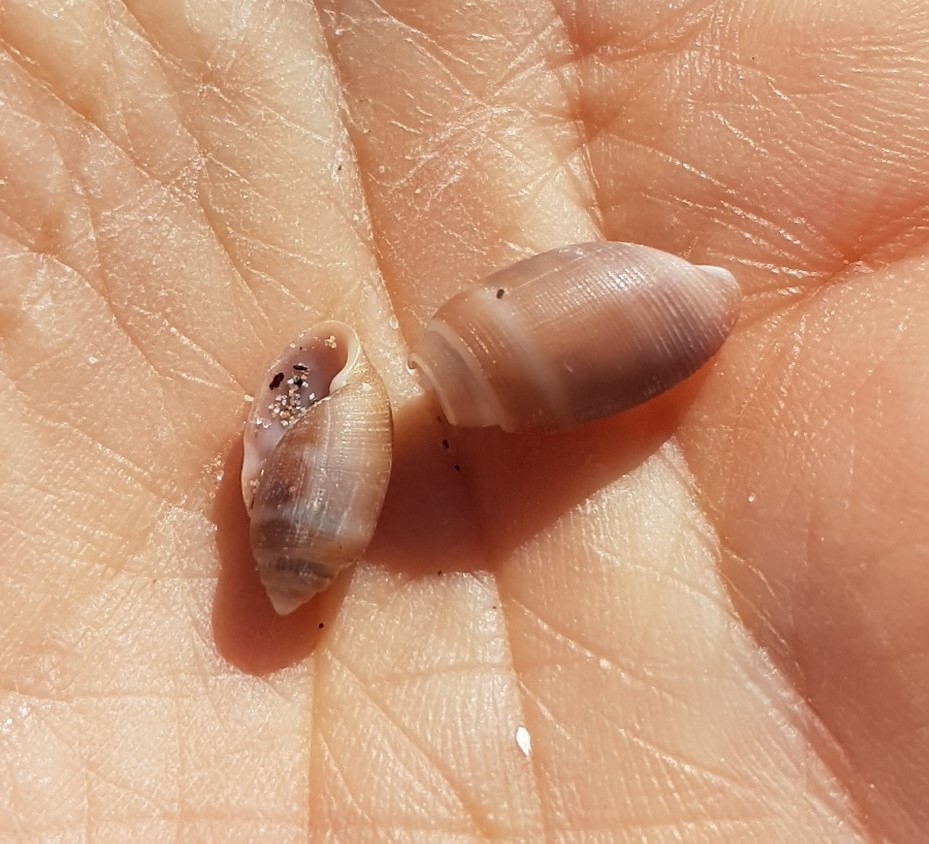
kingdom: Animalia
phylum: Mollusca
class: Gastropoda
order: Cephalaspidea
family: Acteonidae
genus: Acteon
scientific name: Acteon tornatilis
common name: European acteon
